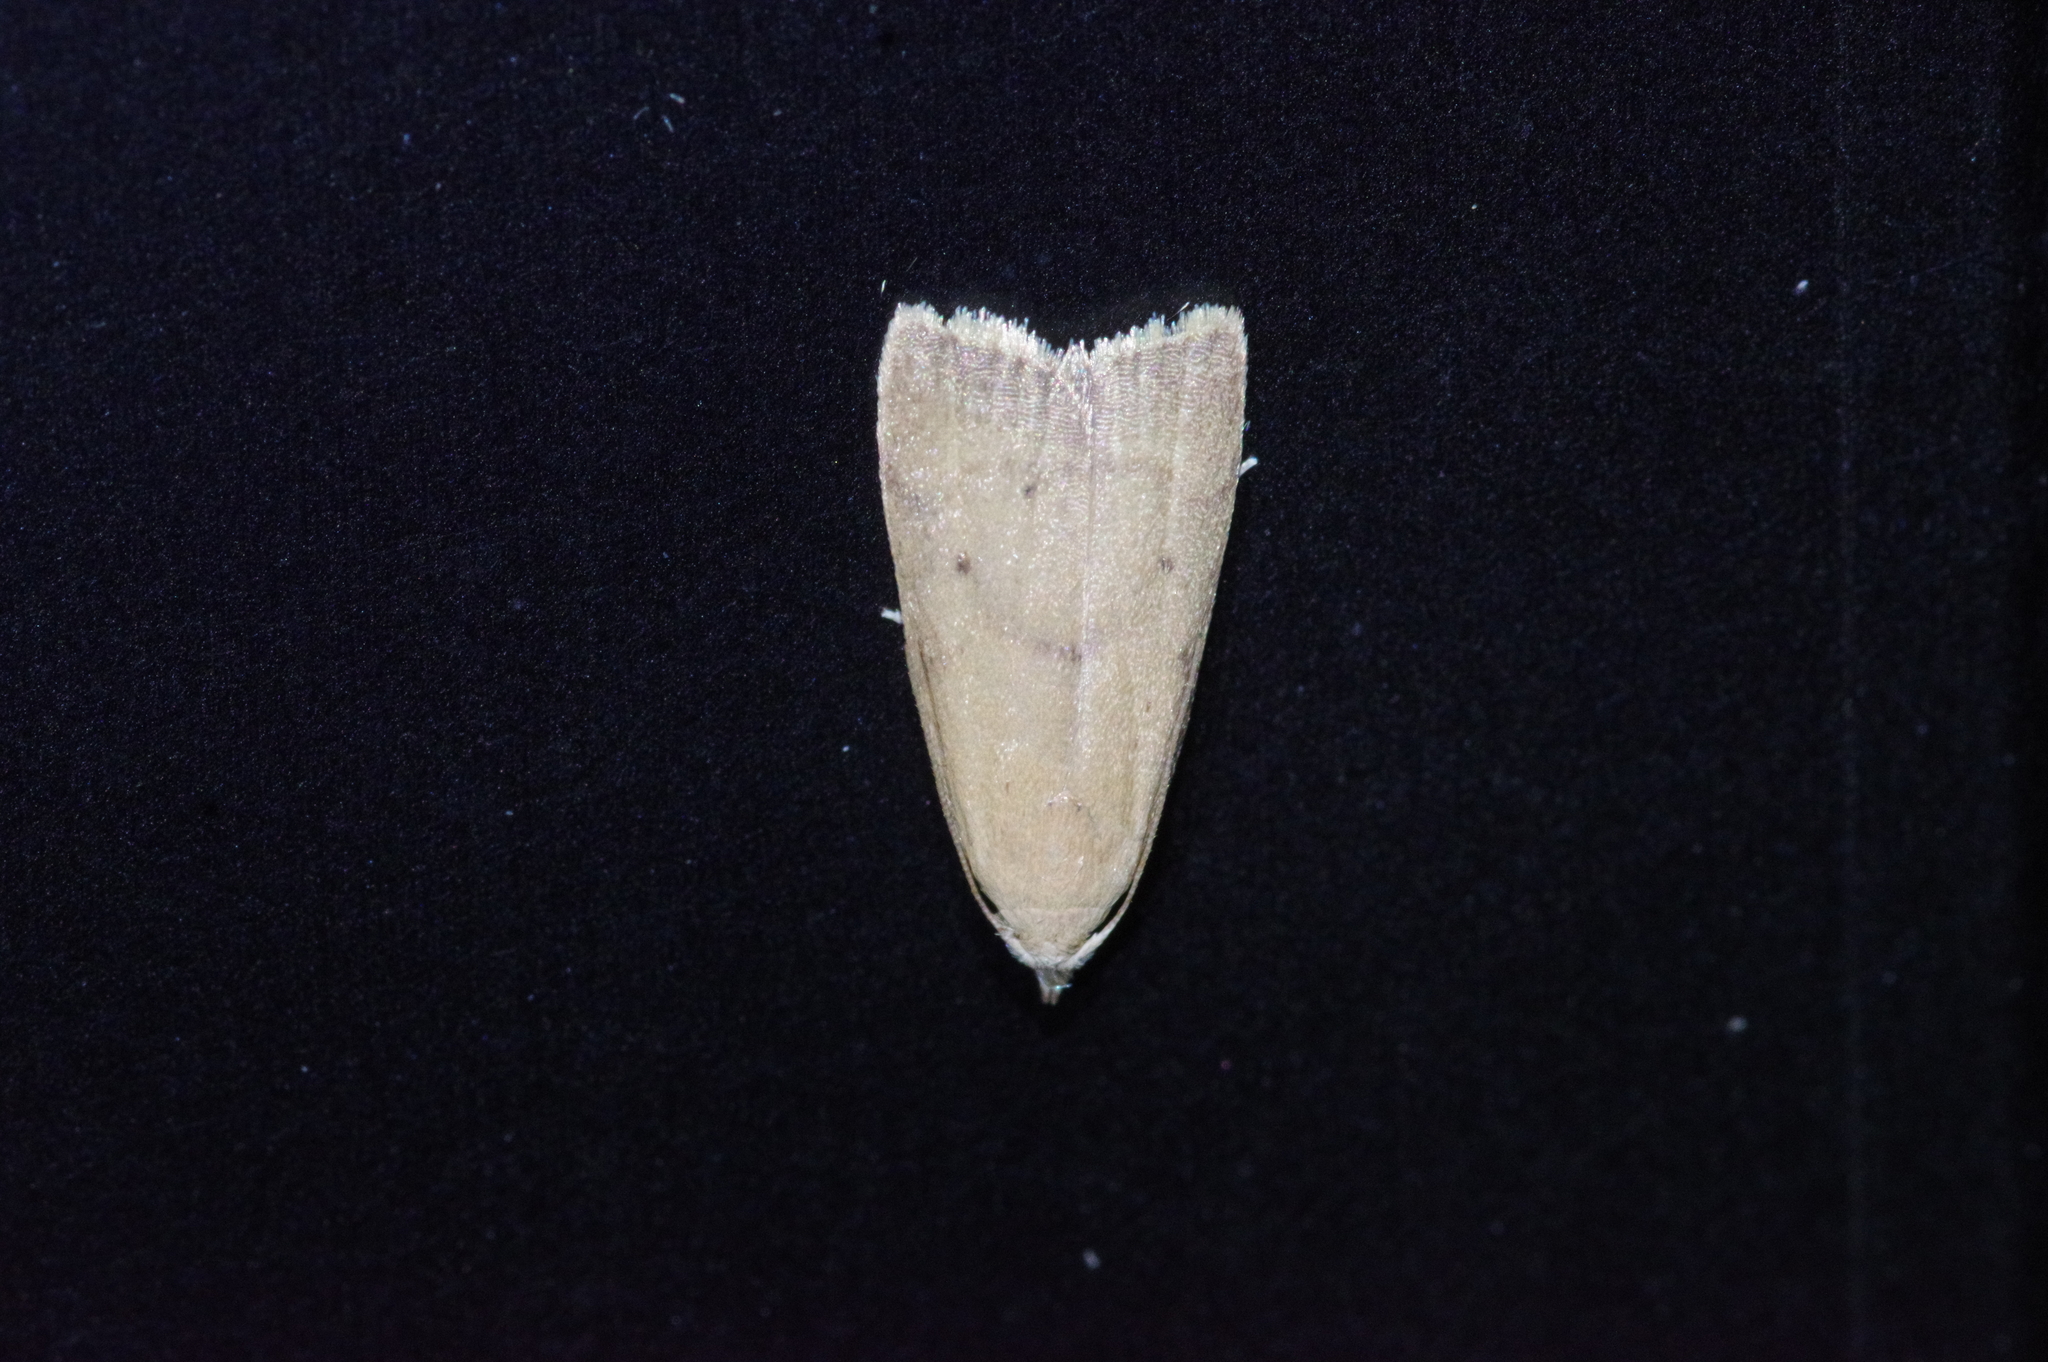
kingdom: Animalia
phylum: Arthropoda
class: Insecta
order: Lepidoptera
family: Pyralidae
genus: Doloessa
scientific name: Doloessa ochrociliella
